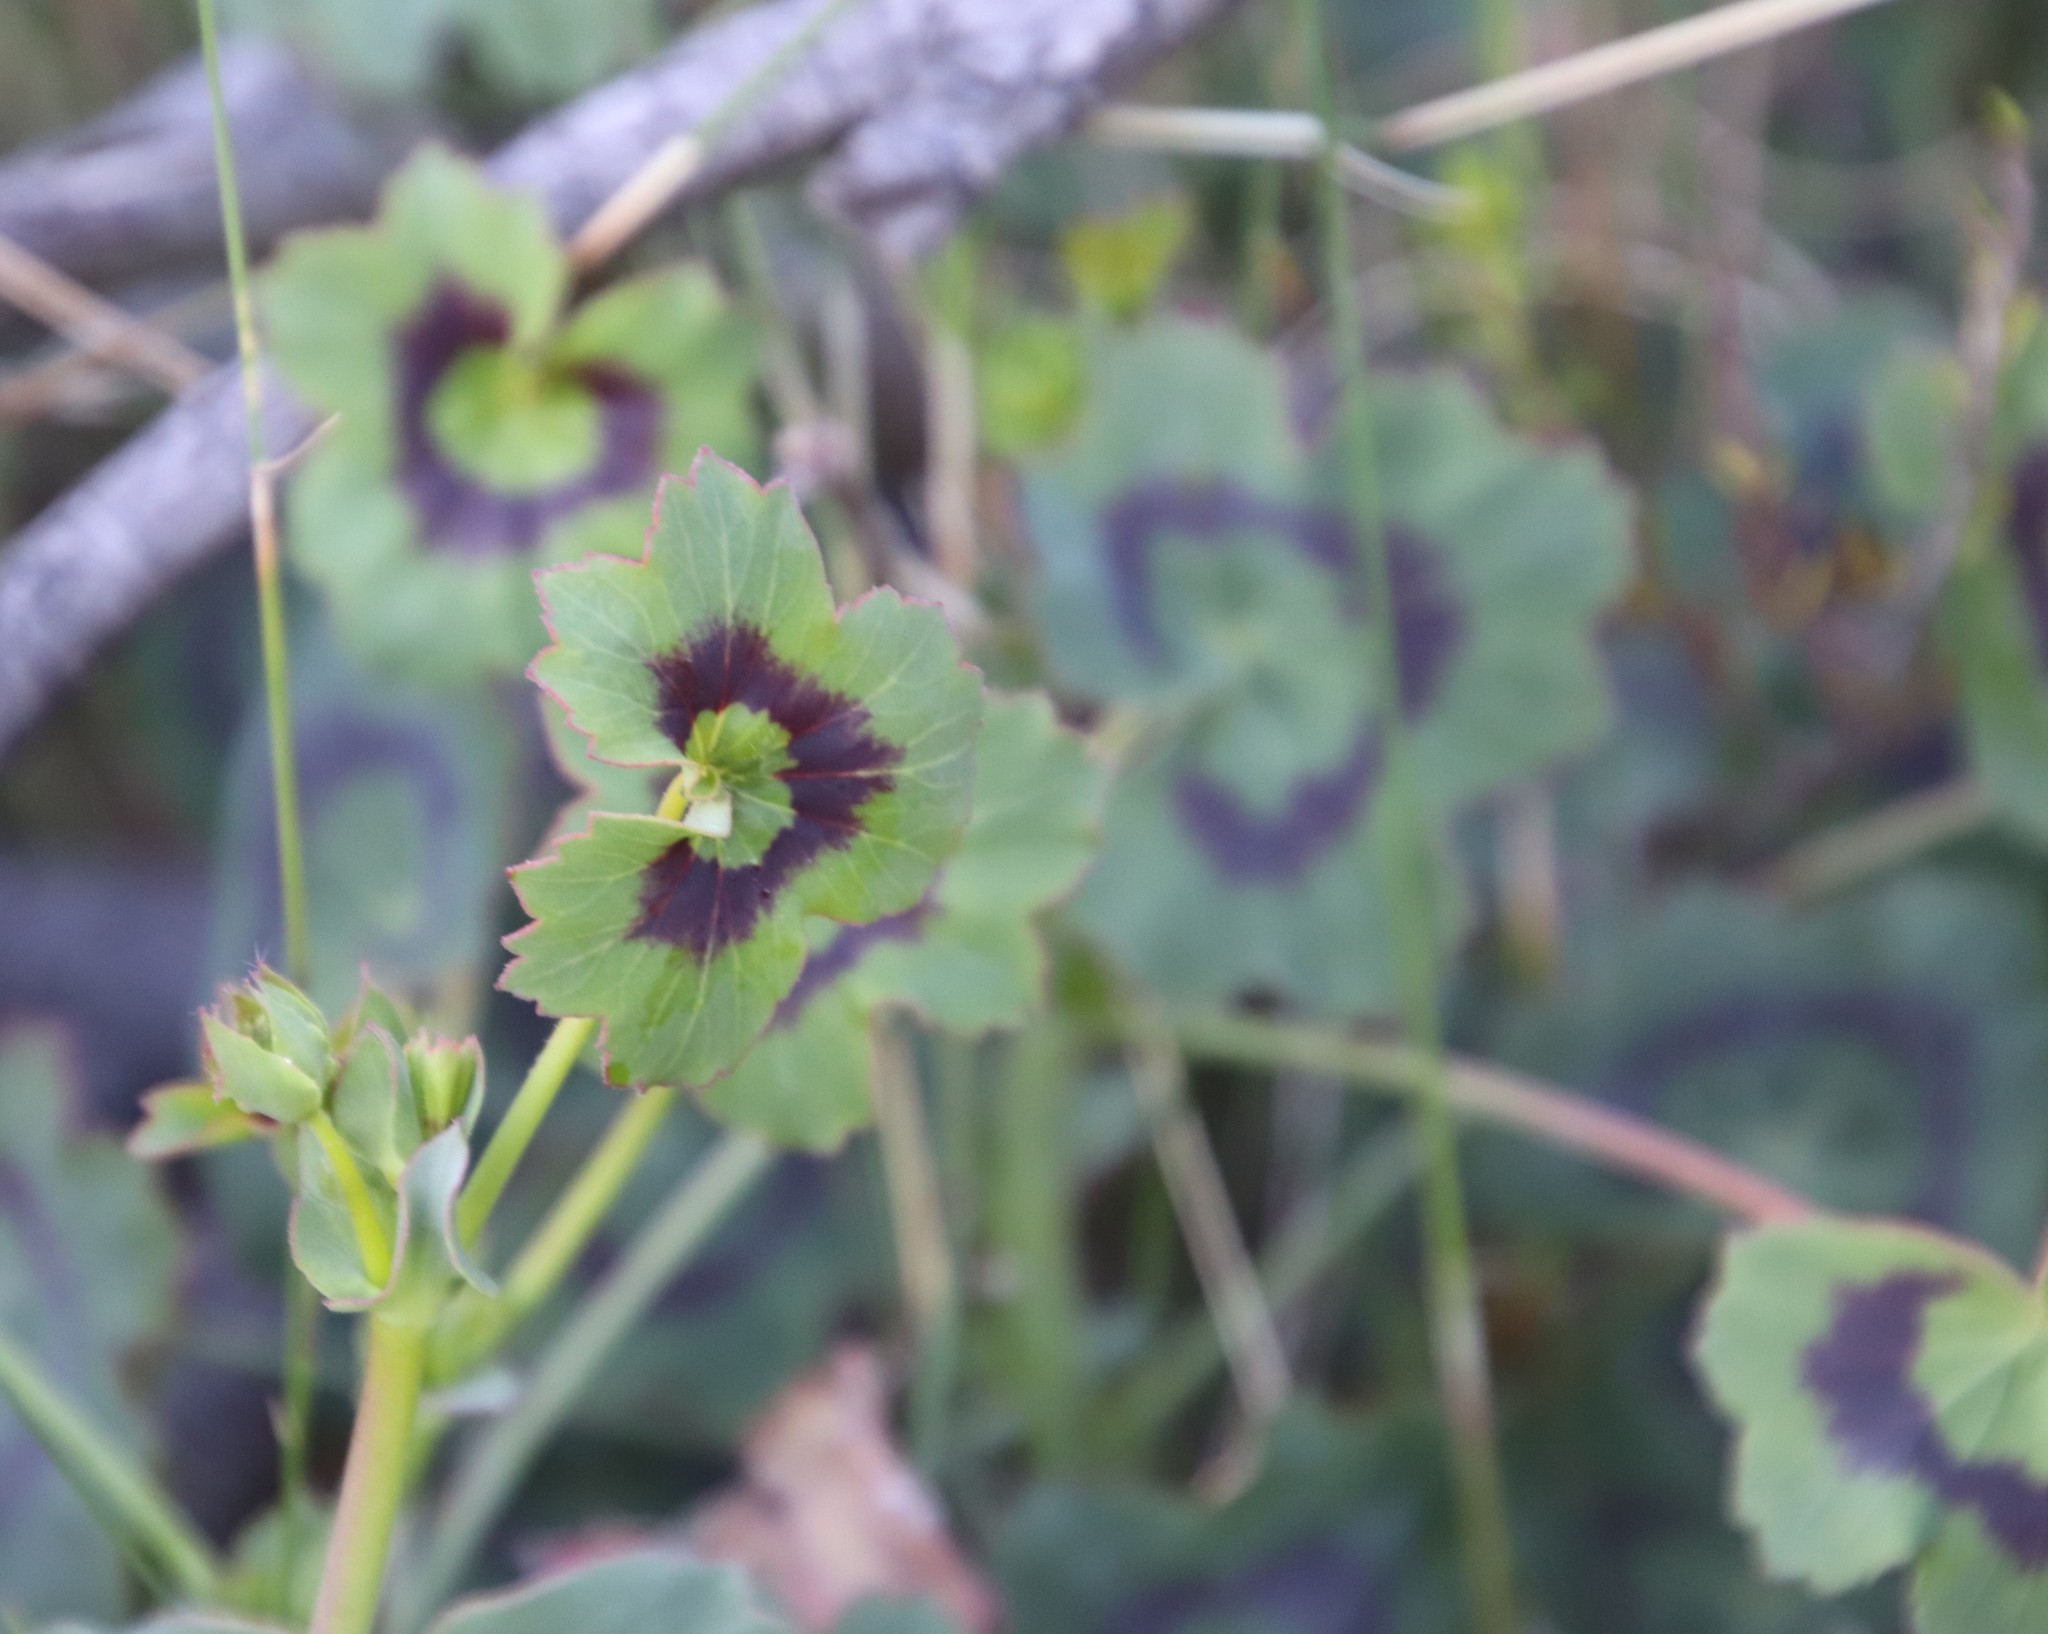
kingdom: Plantae
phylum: Tracheophyta
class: Magnoliopsida
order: Geraniales
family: Geraniaceae
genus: Pelargonium
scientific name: Pelargonium tabulare
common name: Table mountain pelargonium
